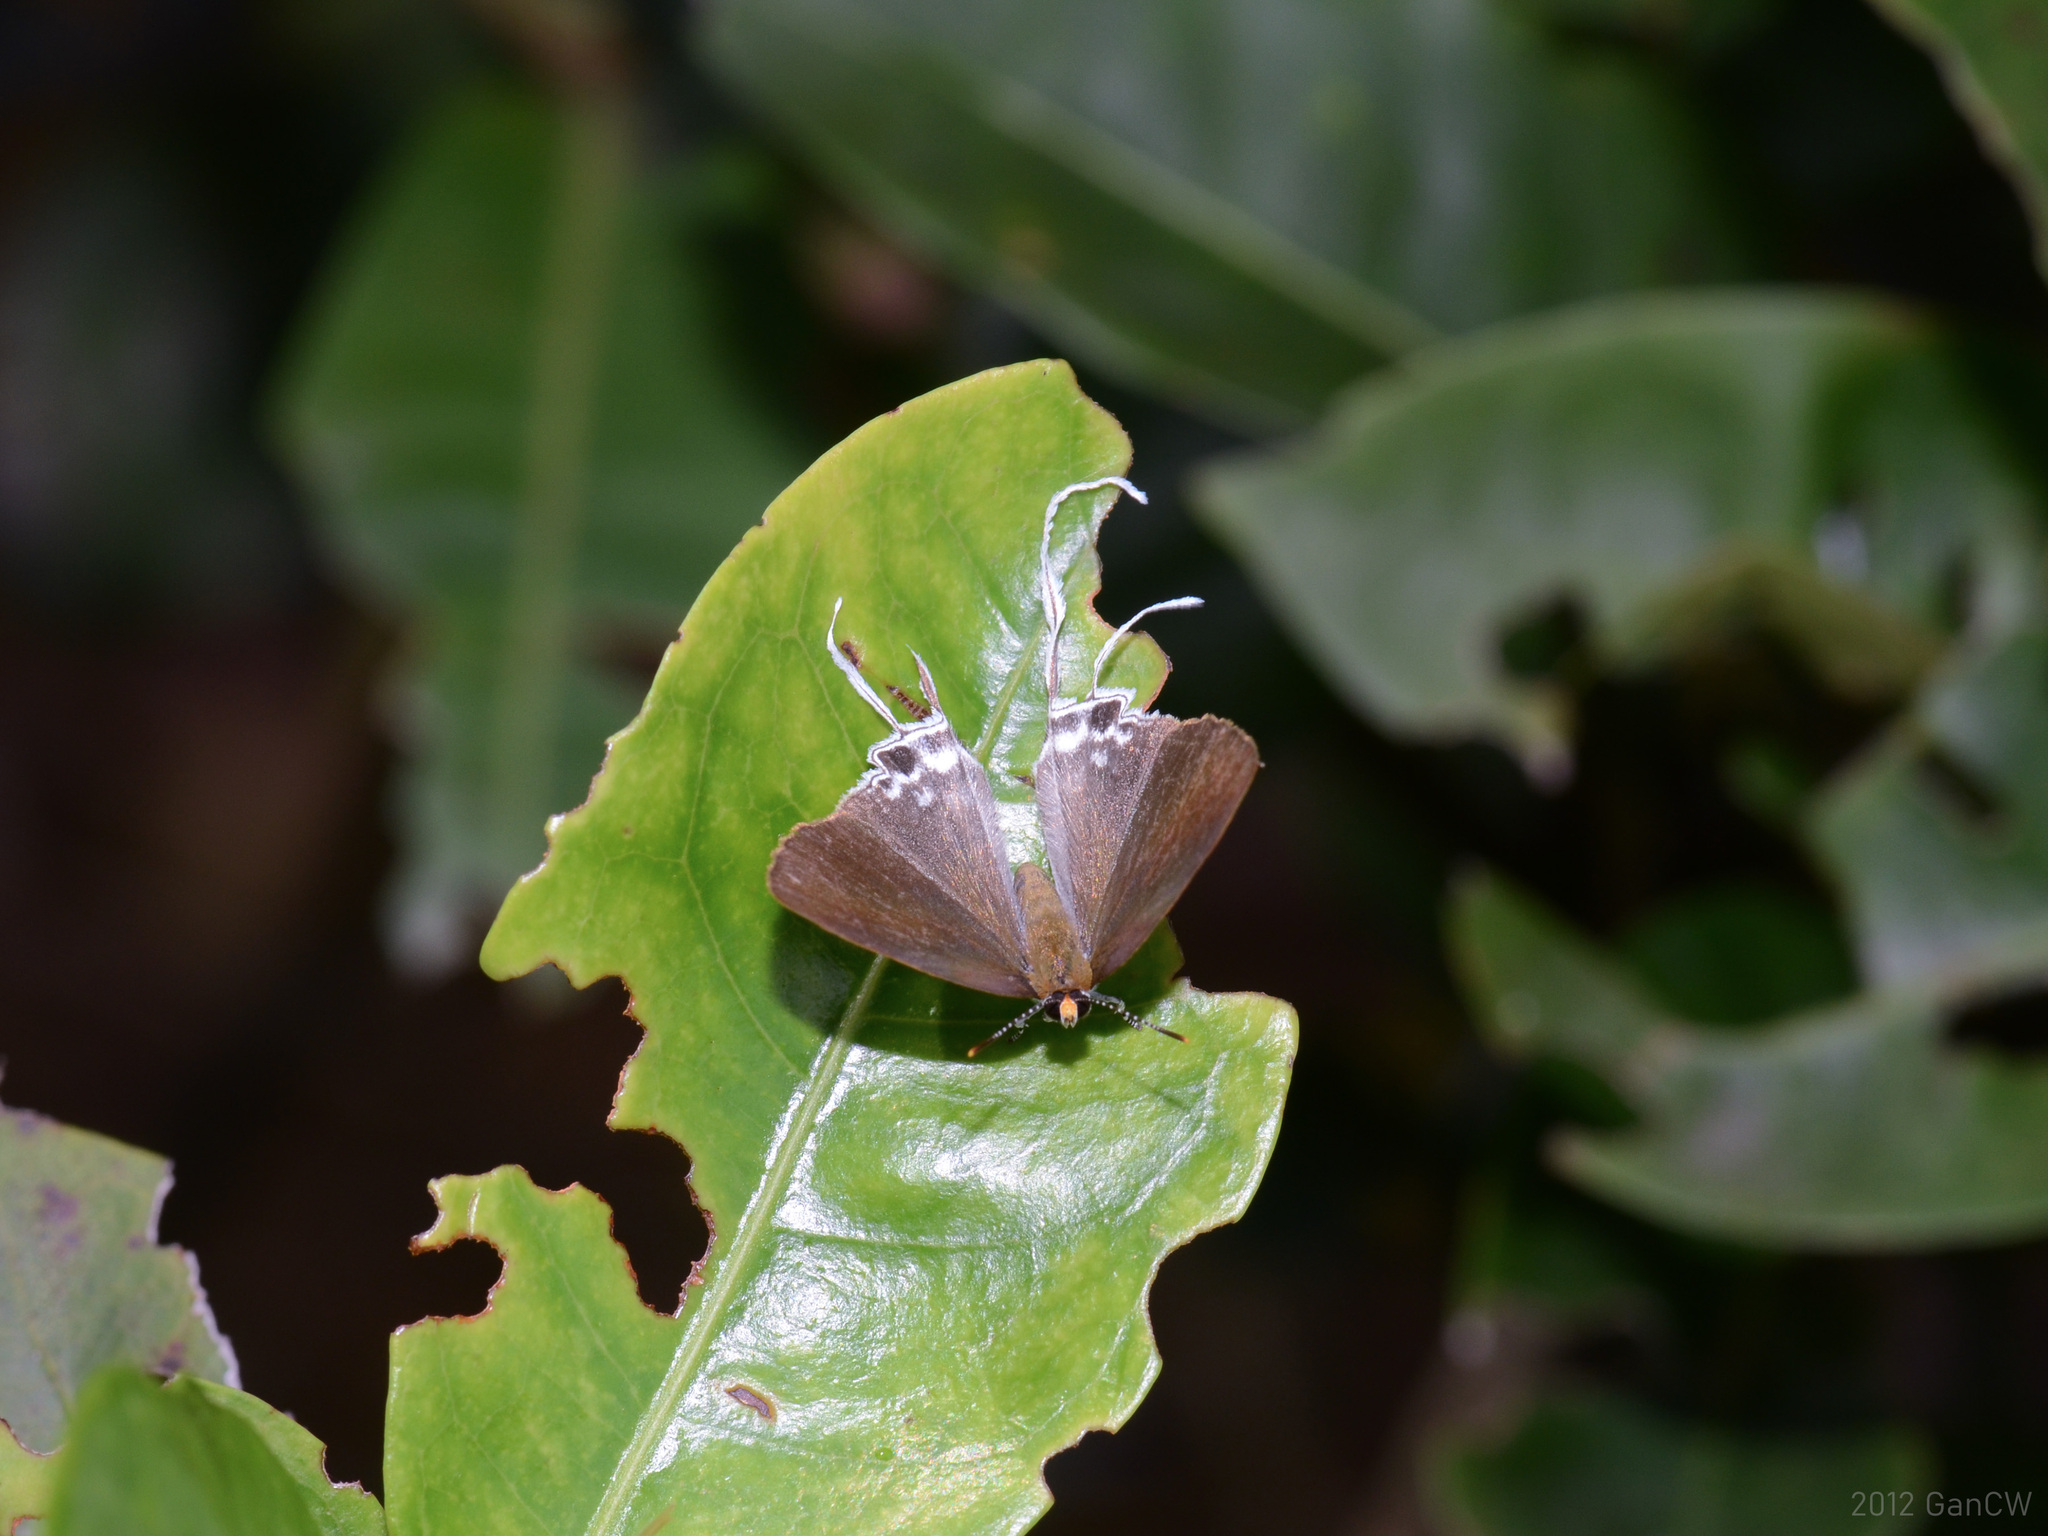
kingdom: Animalia
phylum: Arthropoda
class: Insecta
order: Lepidoptera
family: Lycaenidae
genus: Zeltus
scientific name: Zeltus amasa
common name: Fluffy tit
